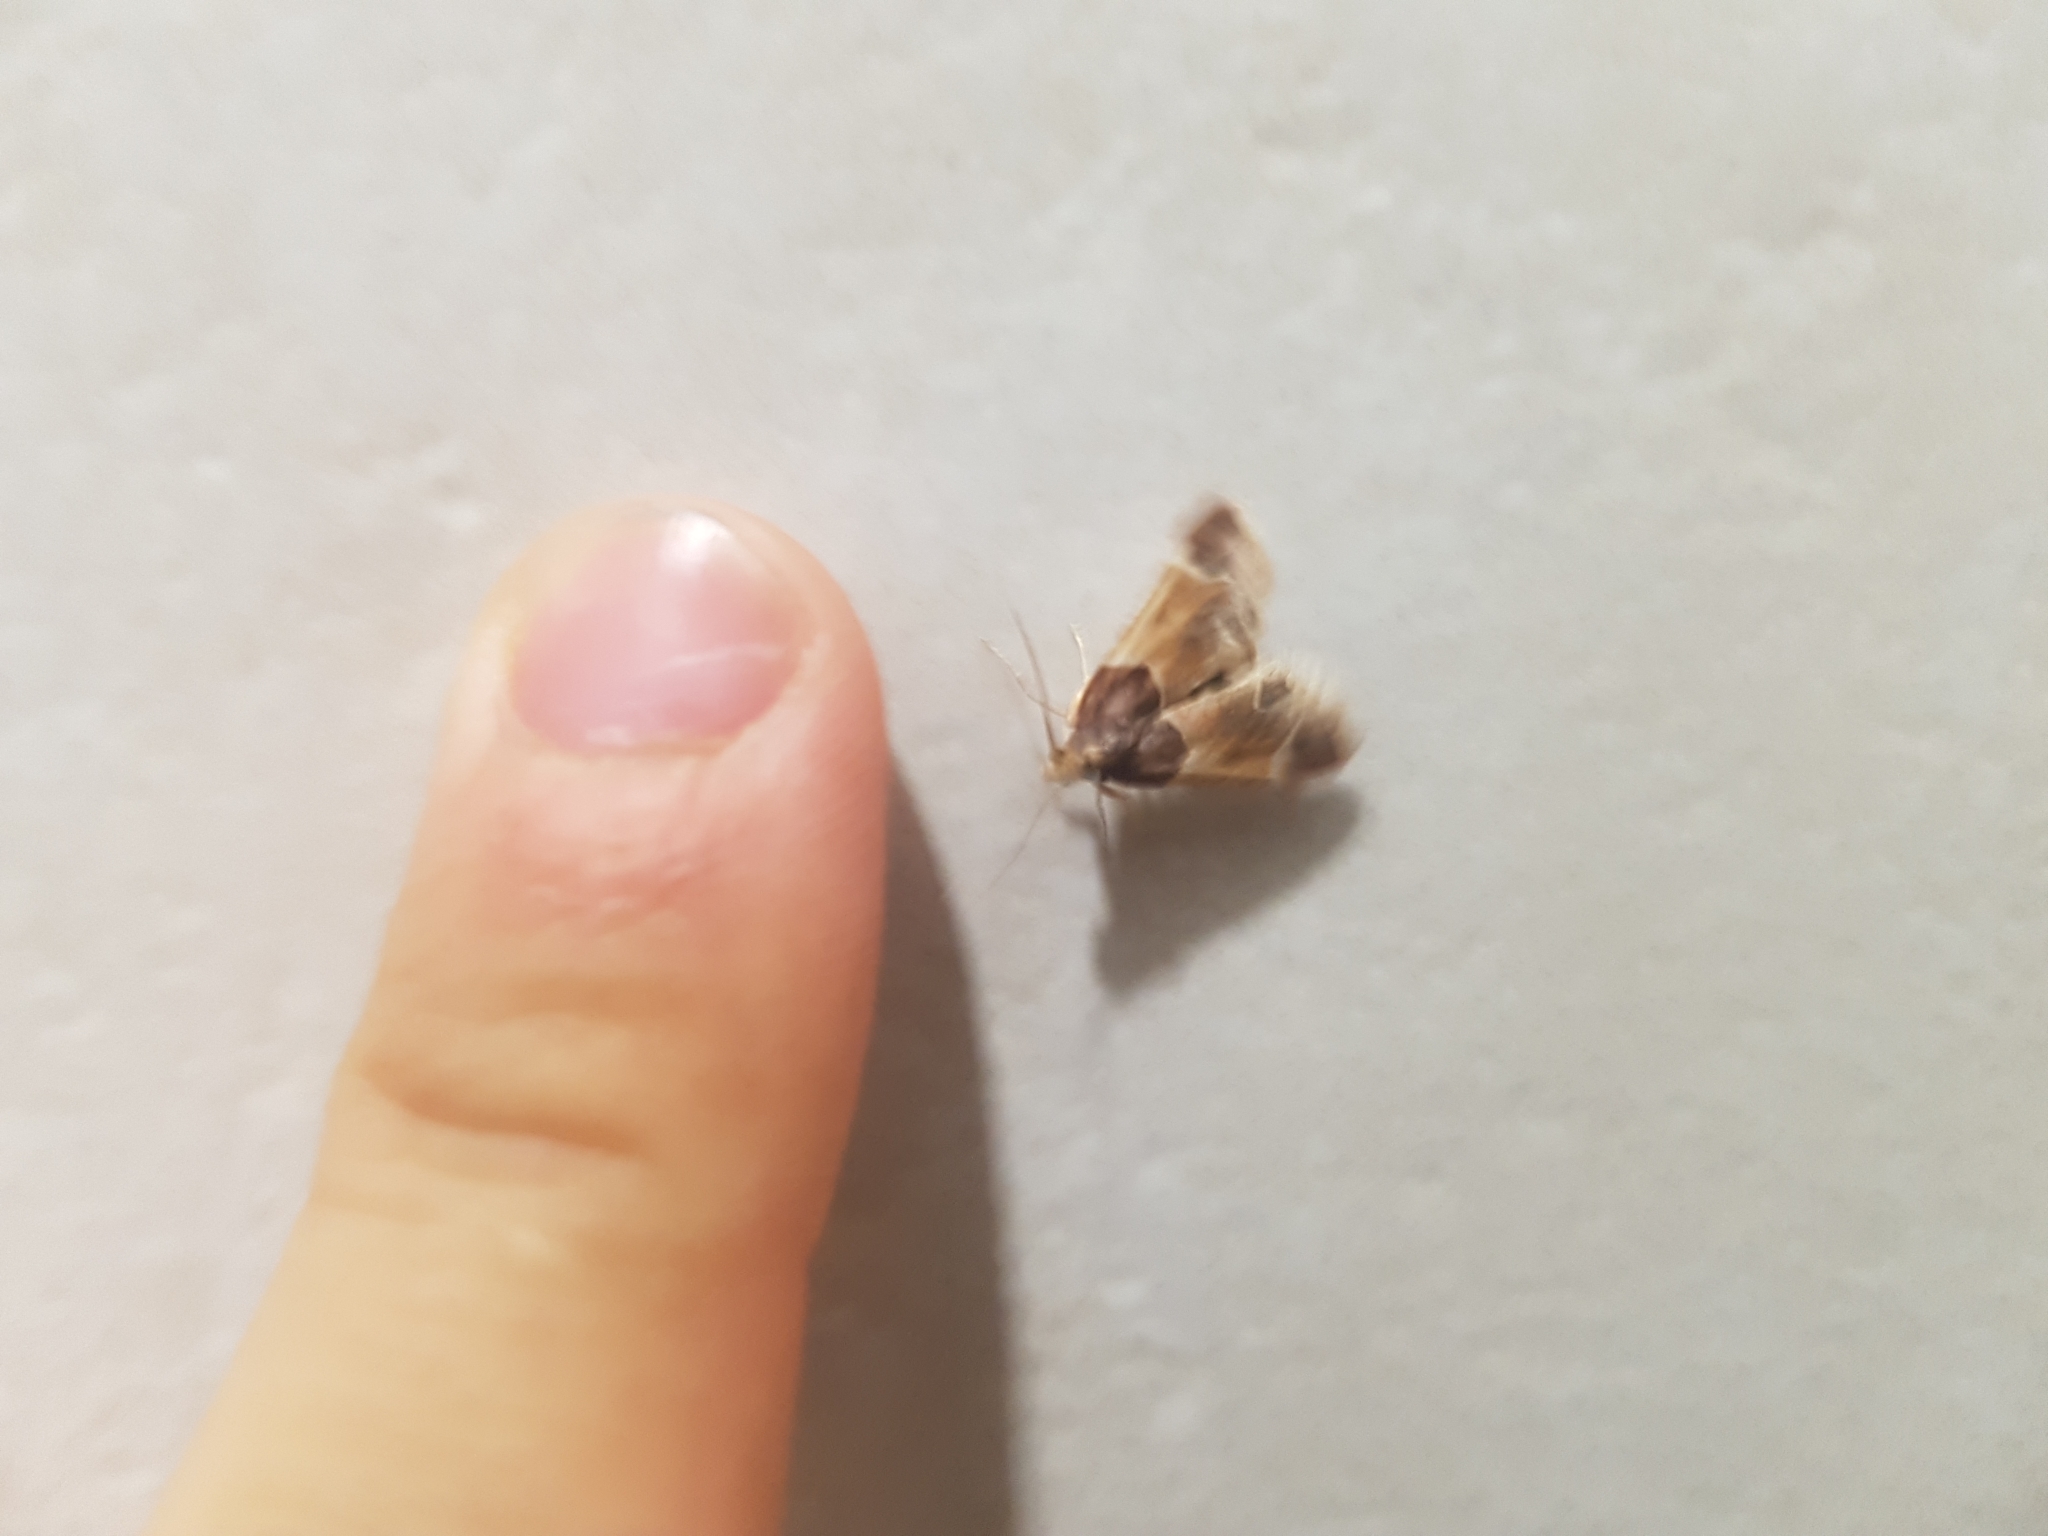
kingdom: Animalia
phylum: Arthropoda
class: Insecta
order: Lepidoptera
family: Pyralidae
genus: Pyralis
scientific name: Pyralis farinalis
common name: Meal moth
